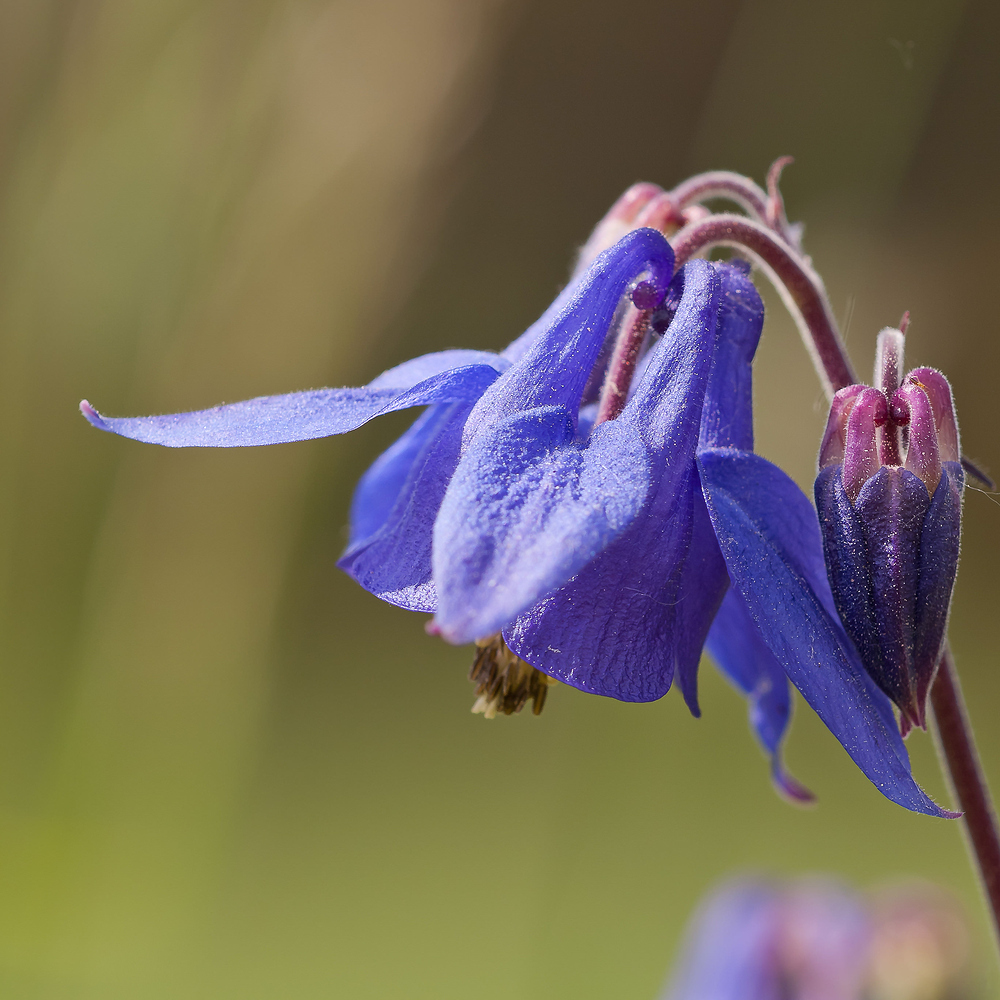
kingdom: Plantae
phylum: Tracheophyta
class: Magnoliopsida
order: Ranunculales
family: Ranunculaceae
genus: Aquilegia
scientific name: Aquilegia vulgaris
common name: Columbine
